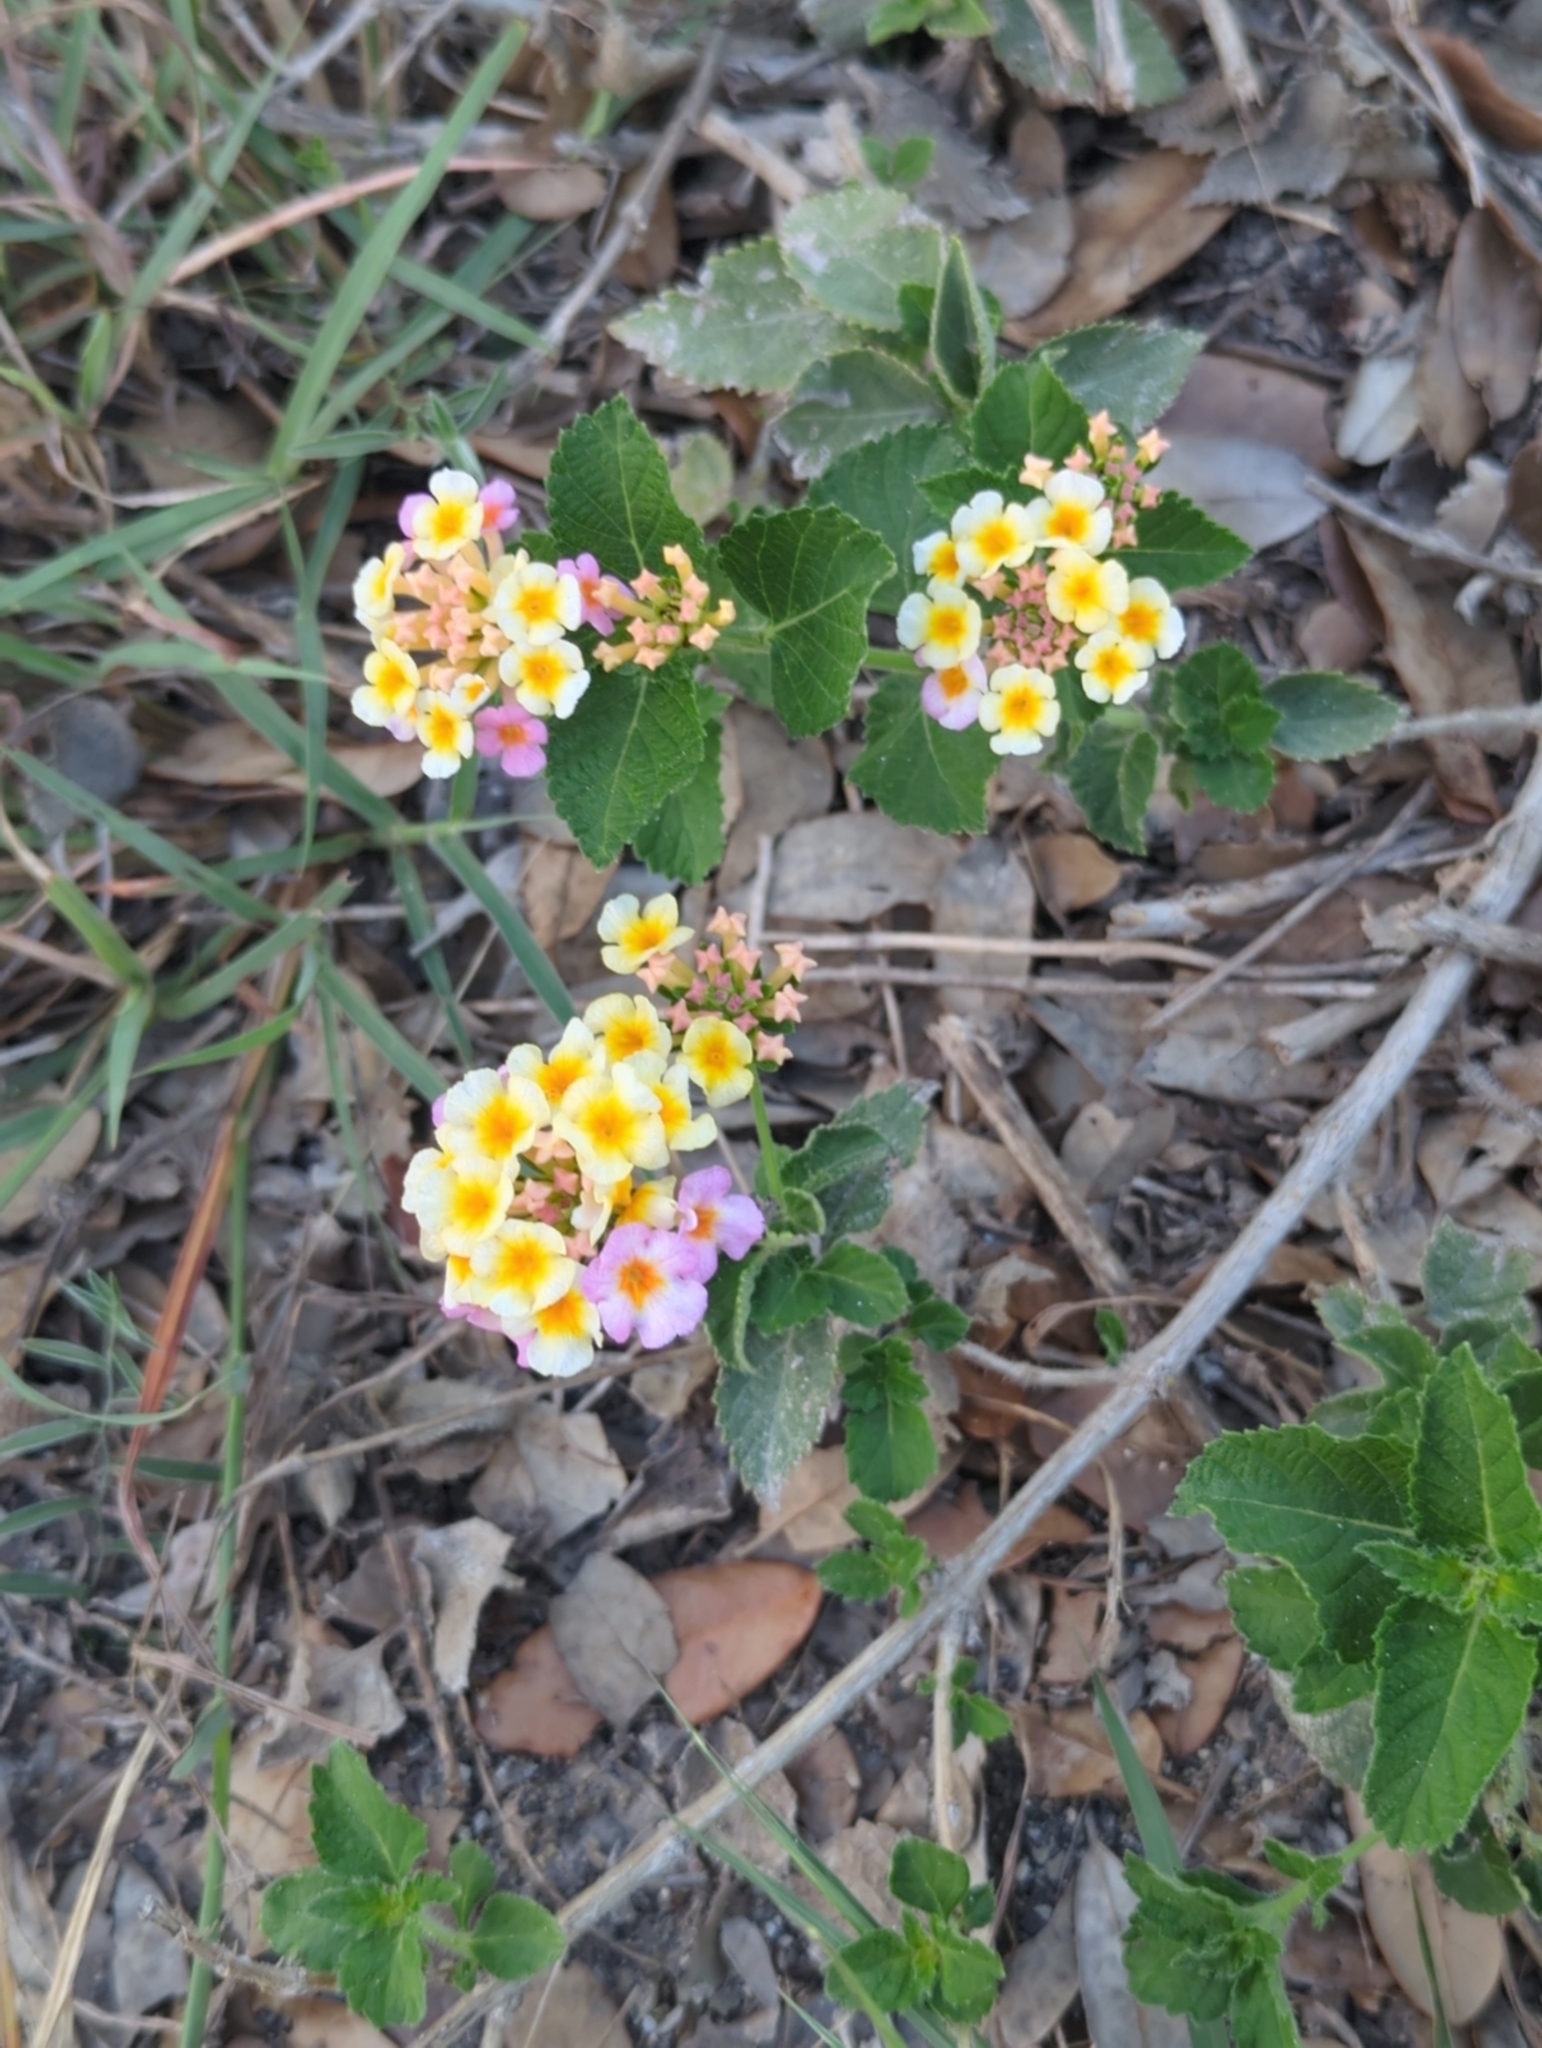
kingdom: Plantae
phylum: Tracheophyta
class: Magnoliopsida
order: Lamiales
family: Verbenaceae
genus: Lantana
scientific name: Lantana strigocamara
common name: Lantana
